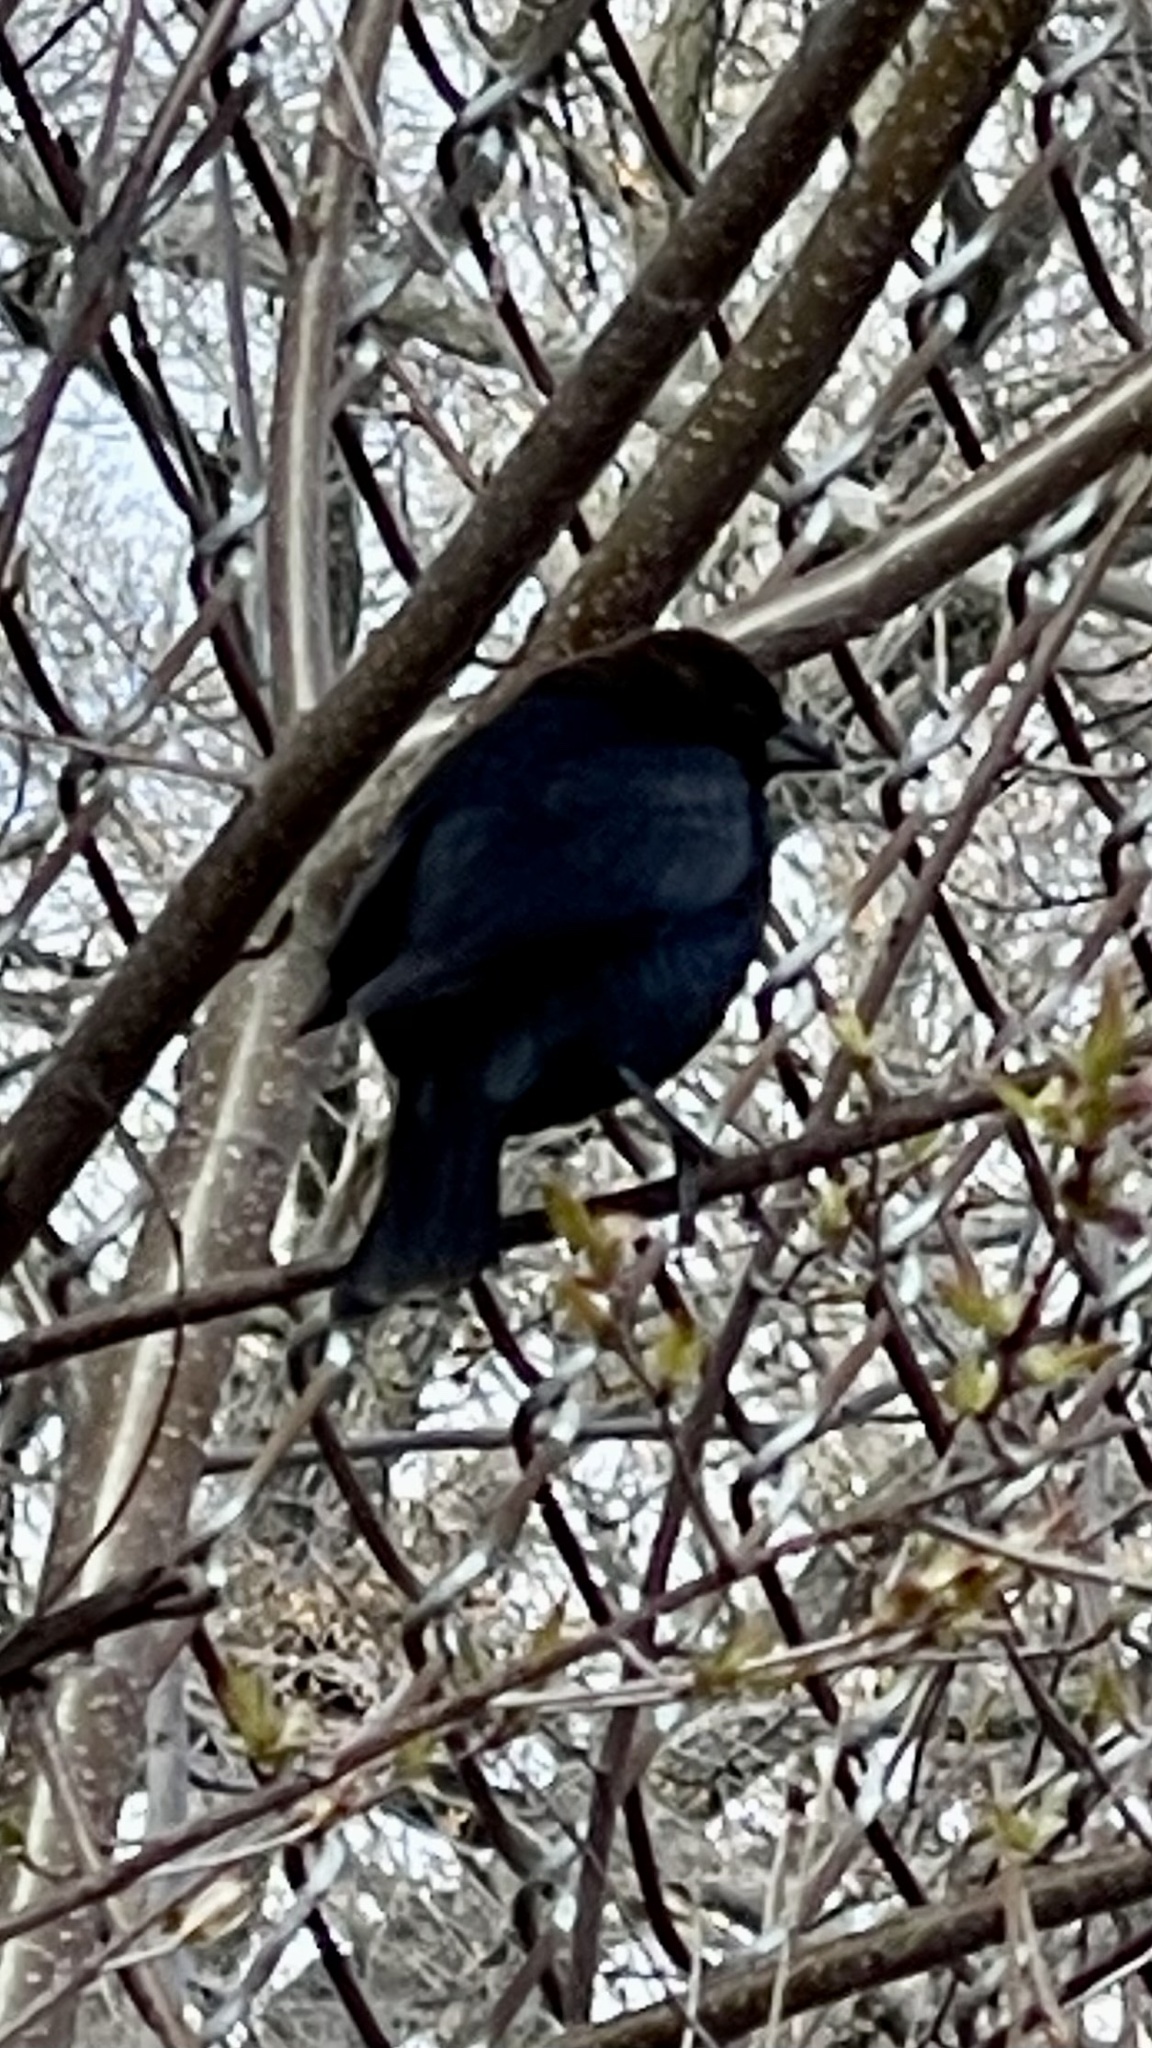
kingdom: Animalia
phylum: Chordata
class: Aves
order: Passeriformes
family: Icteridae
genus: Molothrus
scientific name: Molothrus ater
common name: Brown-headed cowbird
